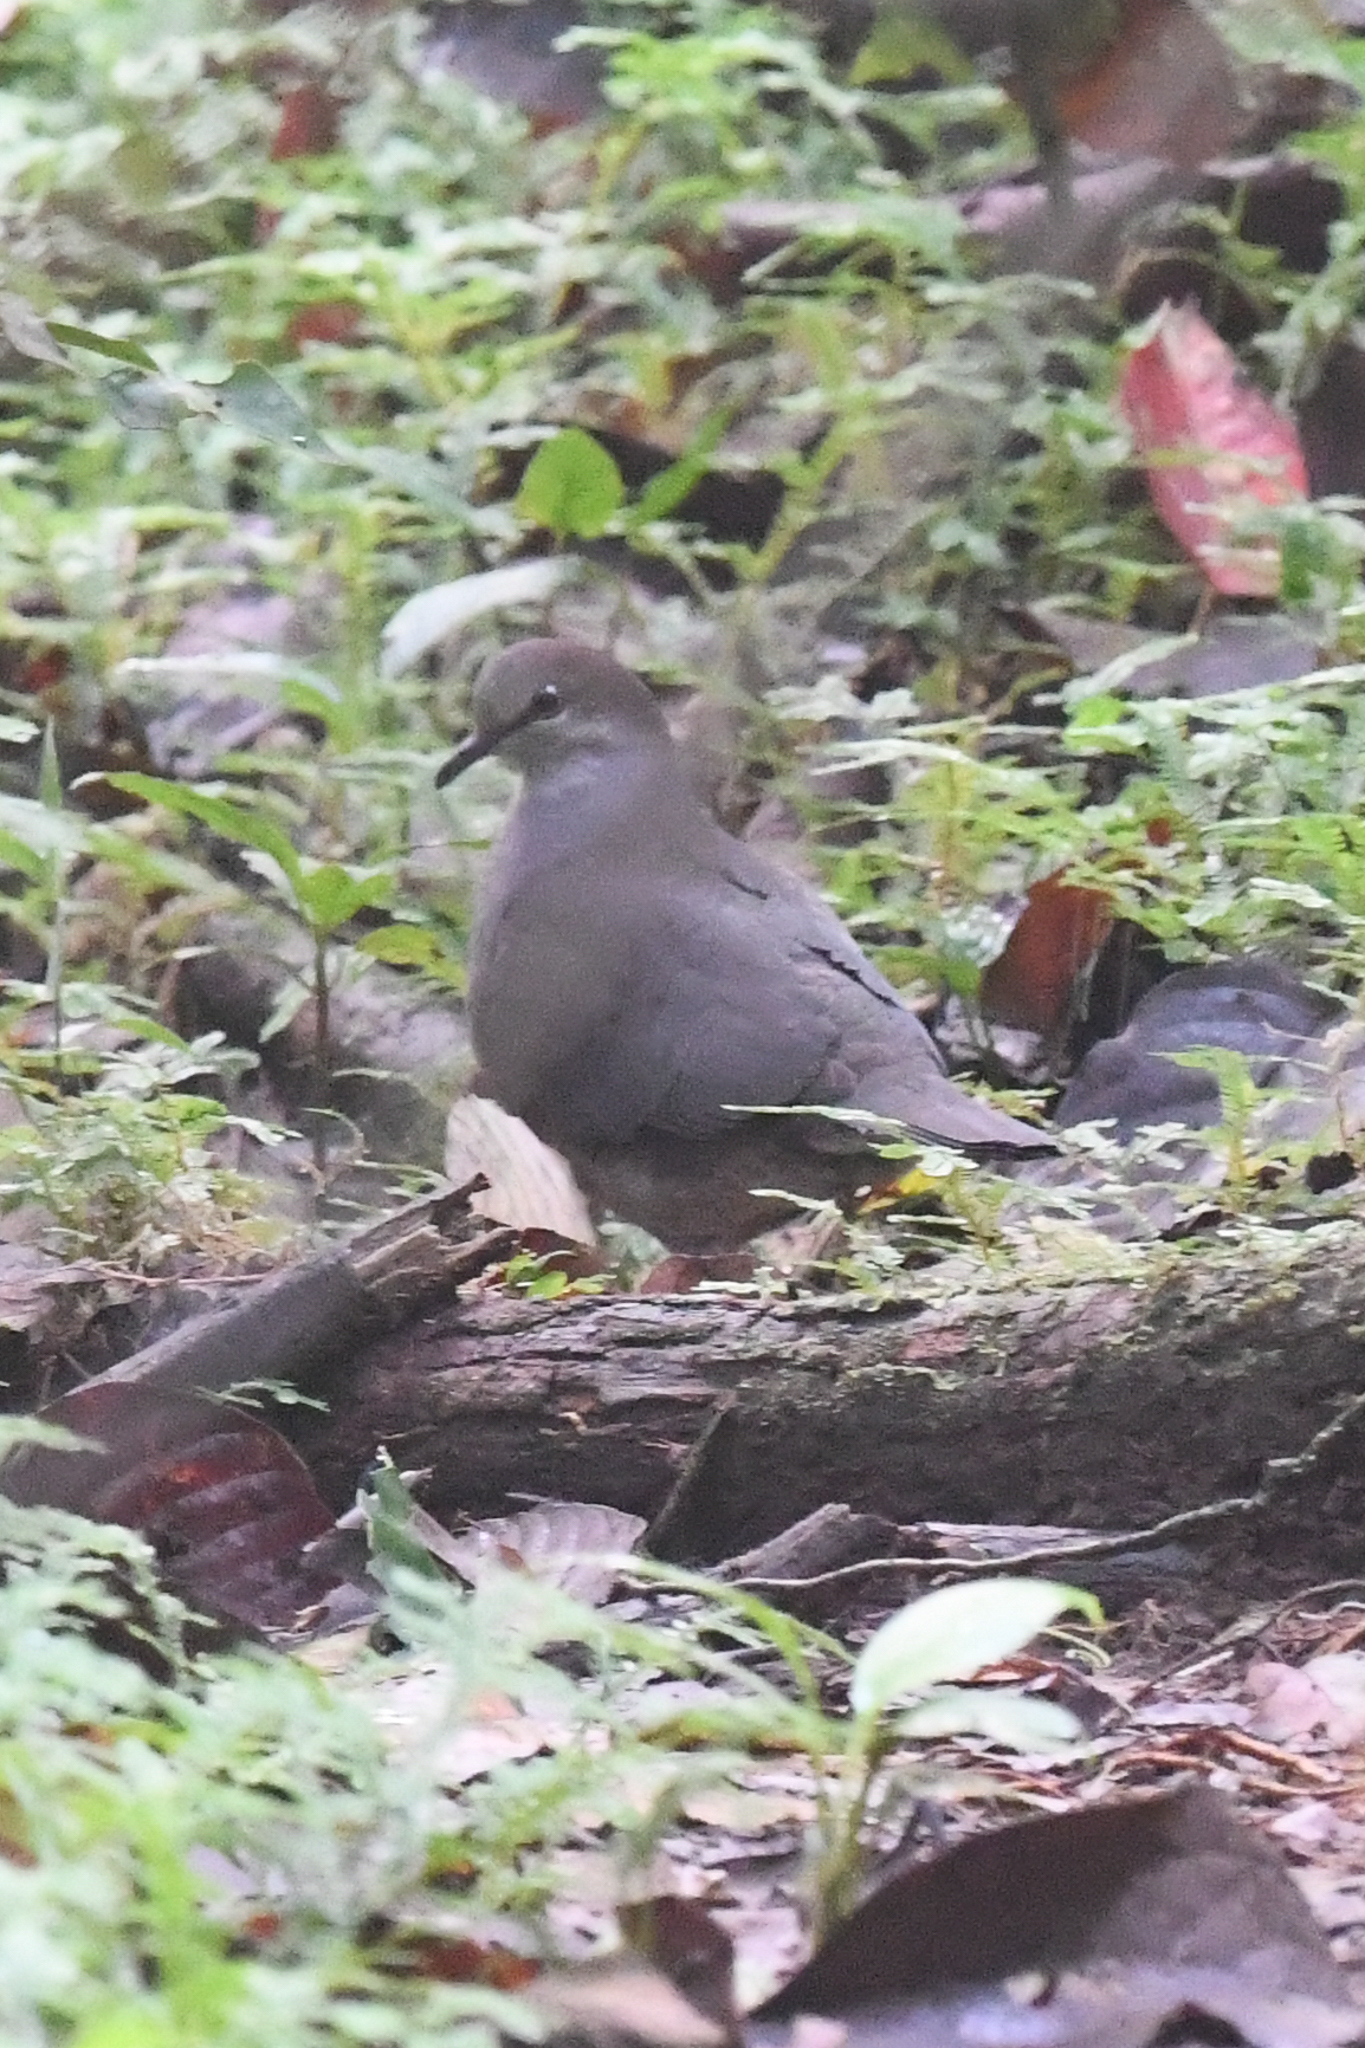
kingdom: Animalia
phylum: Chordata
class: Aves
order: Columbiformes
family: Columbidae
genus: Leptotila
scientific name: Leptotila cassinii
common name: Grey-chested dove
